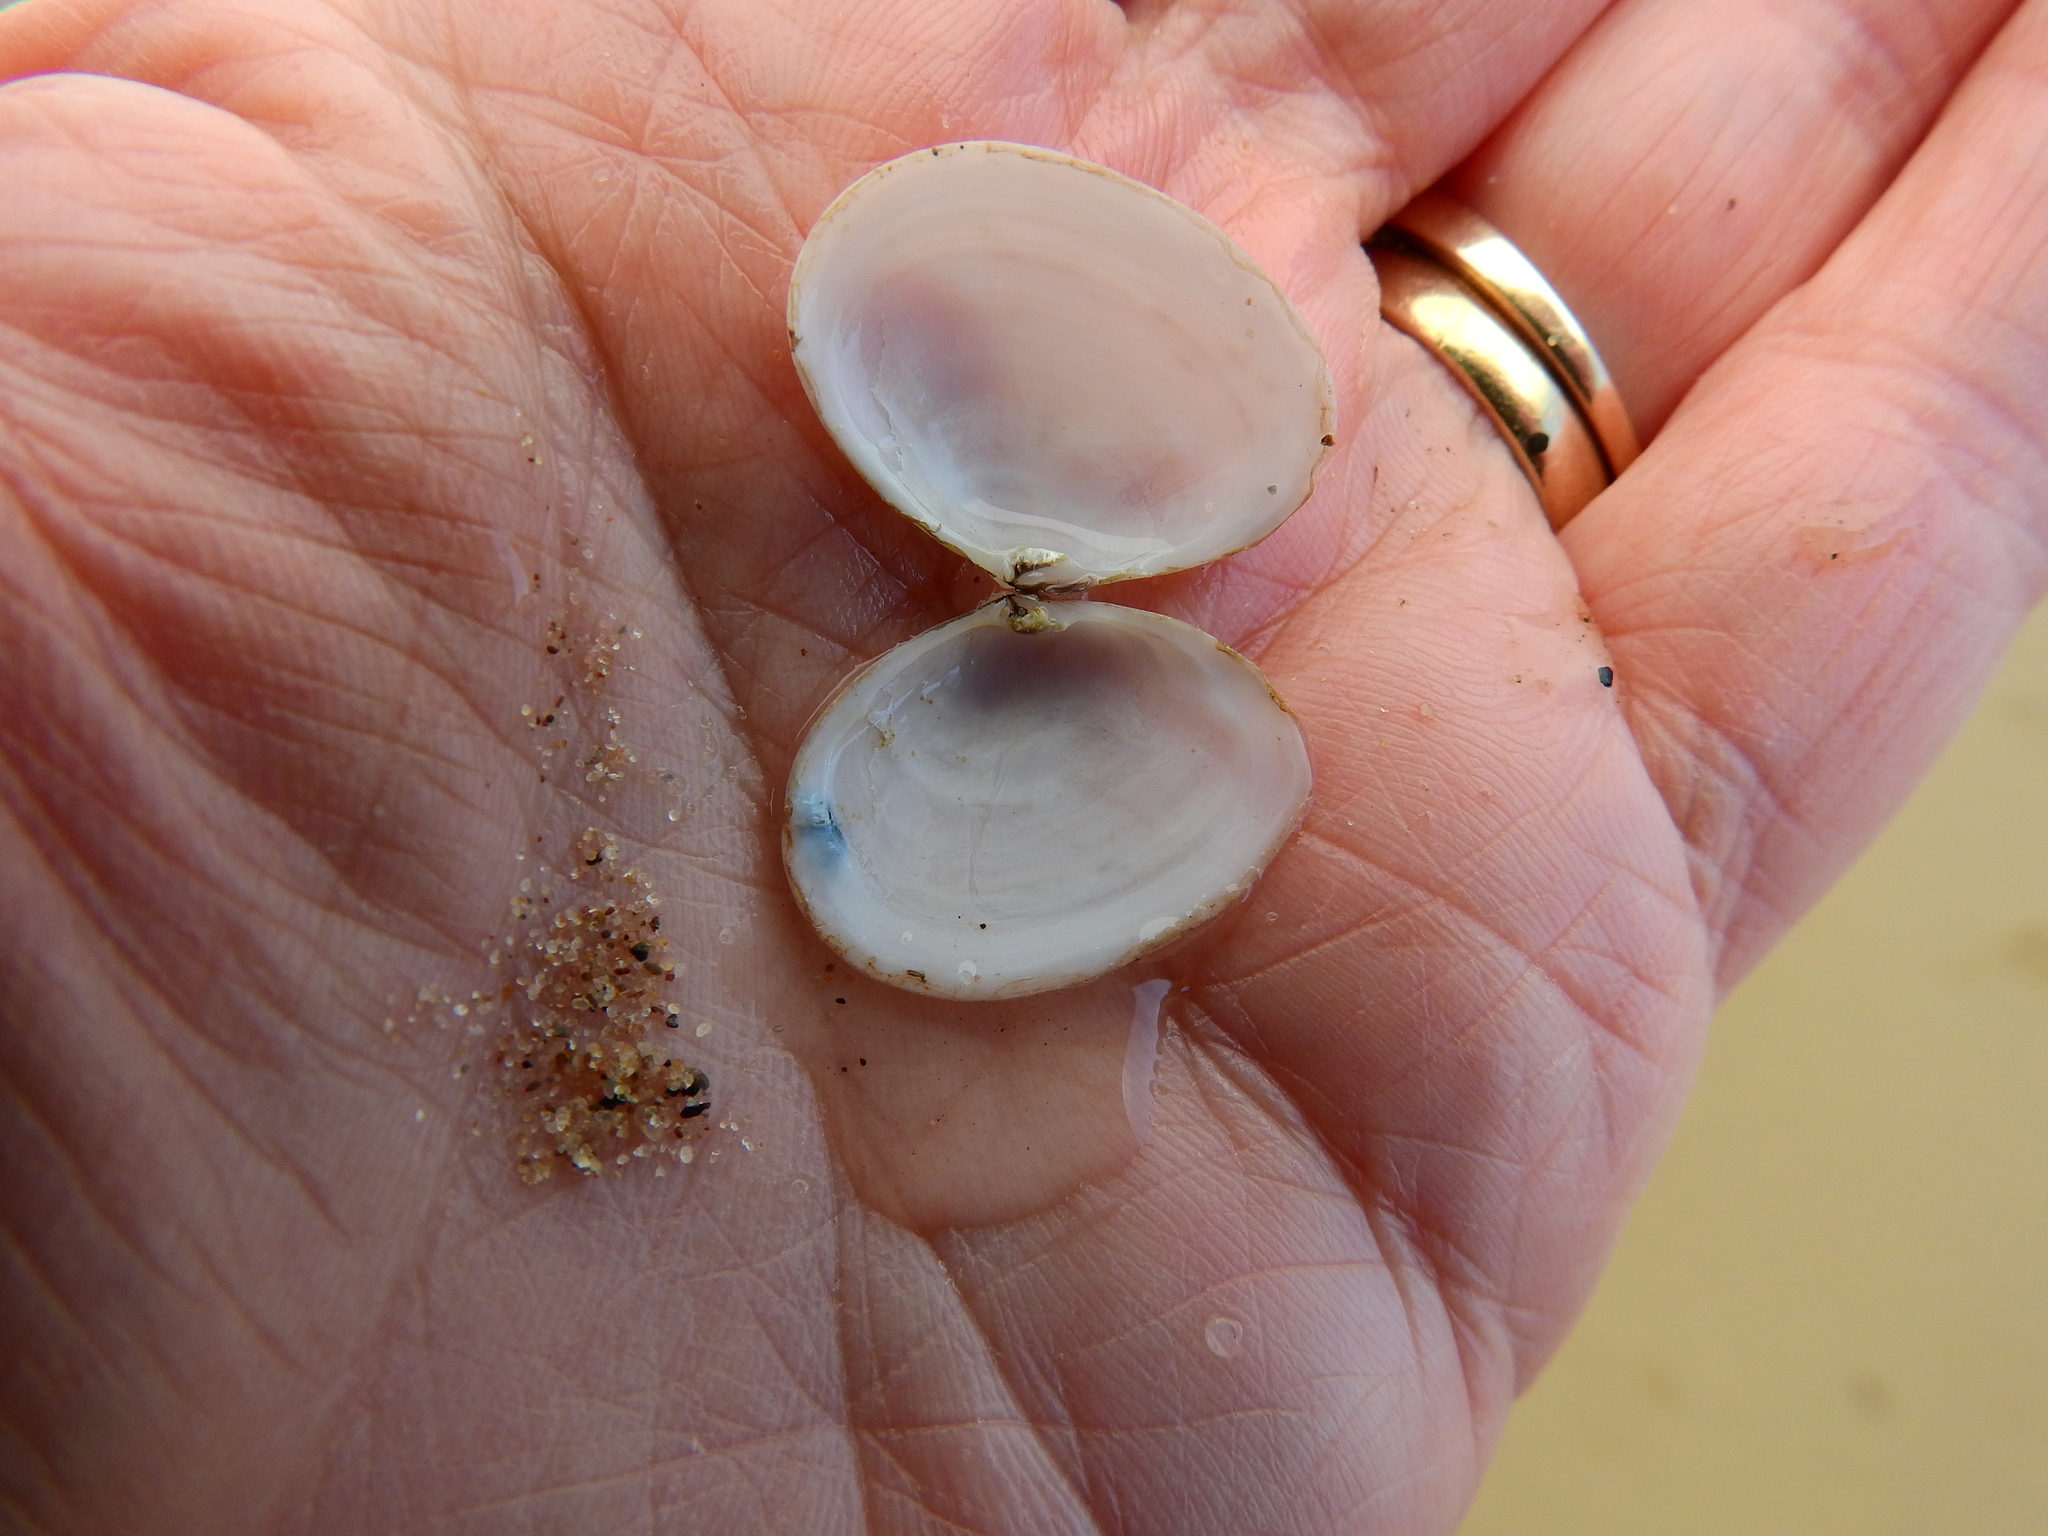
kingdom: Animalia
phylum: Mollusca
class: Bivalvia
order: Cardiida
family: Tellinidae
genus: Macoma
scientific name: Macoma balthica
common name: Baltic tellin
